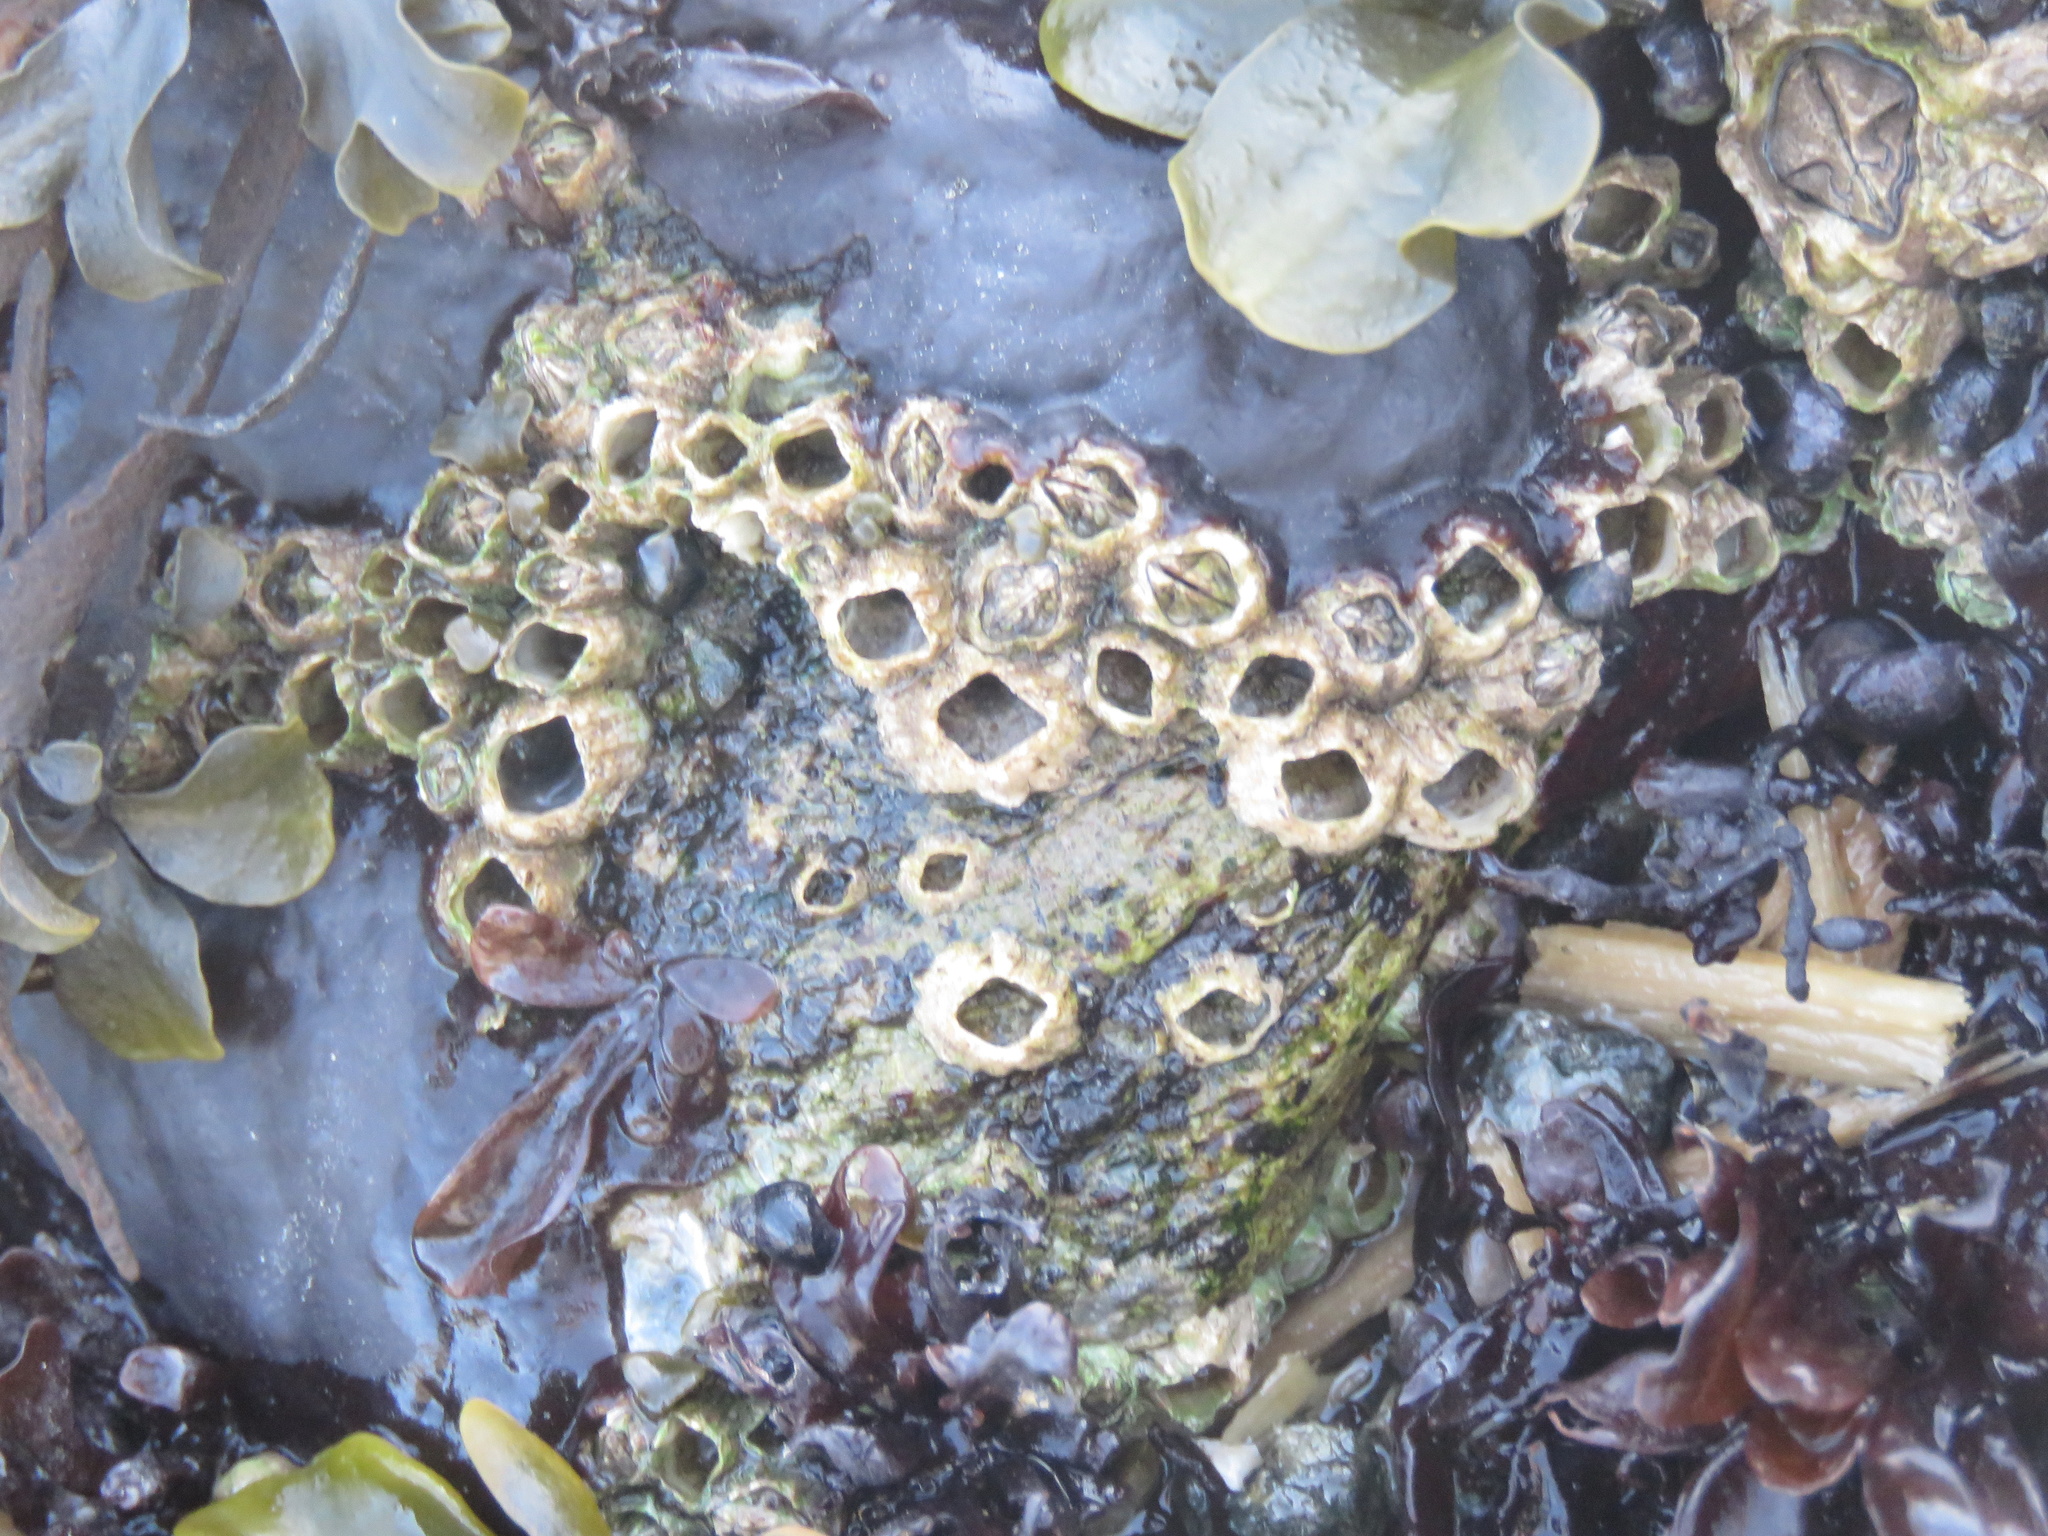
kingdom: Animalia
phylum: Arthropoda
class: Maxillopoda
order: Sessilia
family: Balanidae
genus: Balanus
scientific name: Balanus glandula
